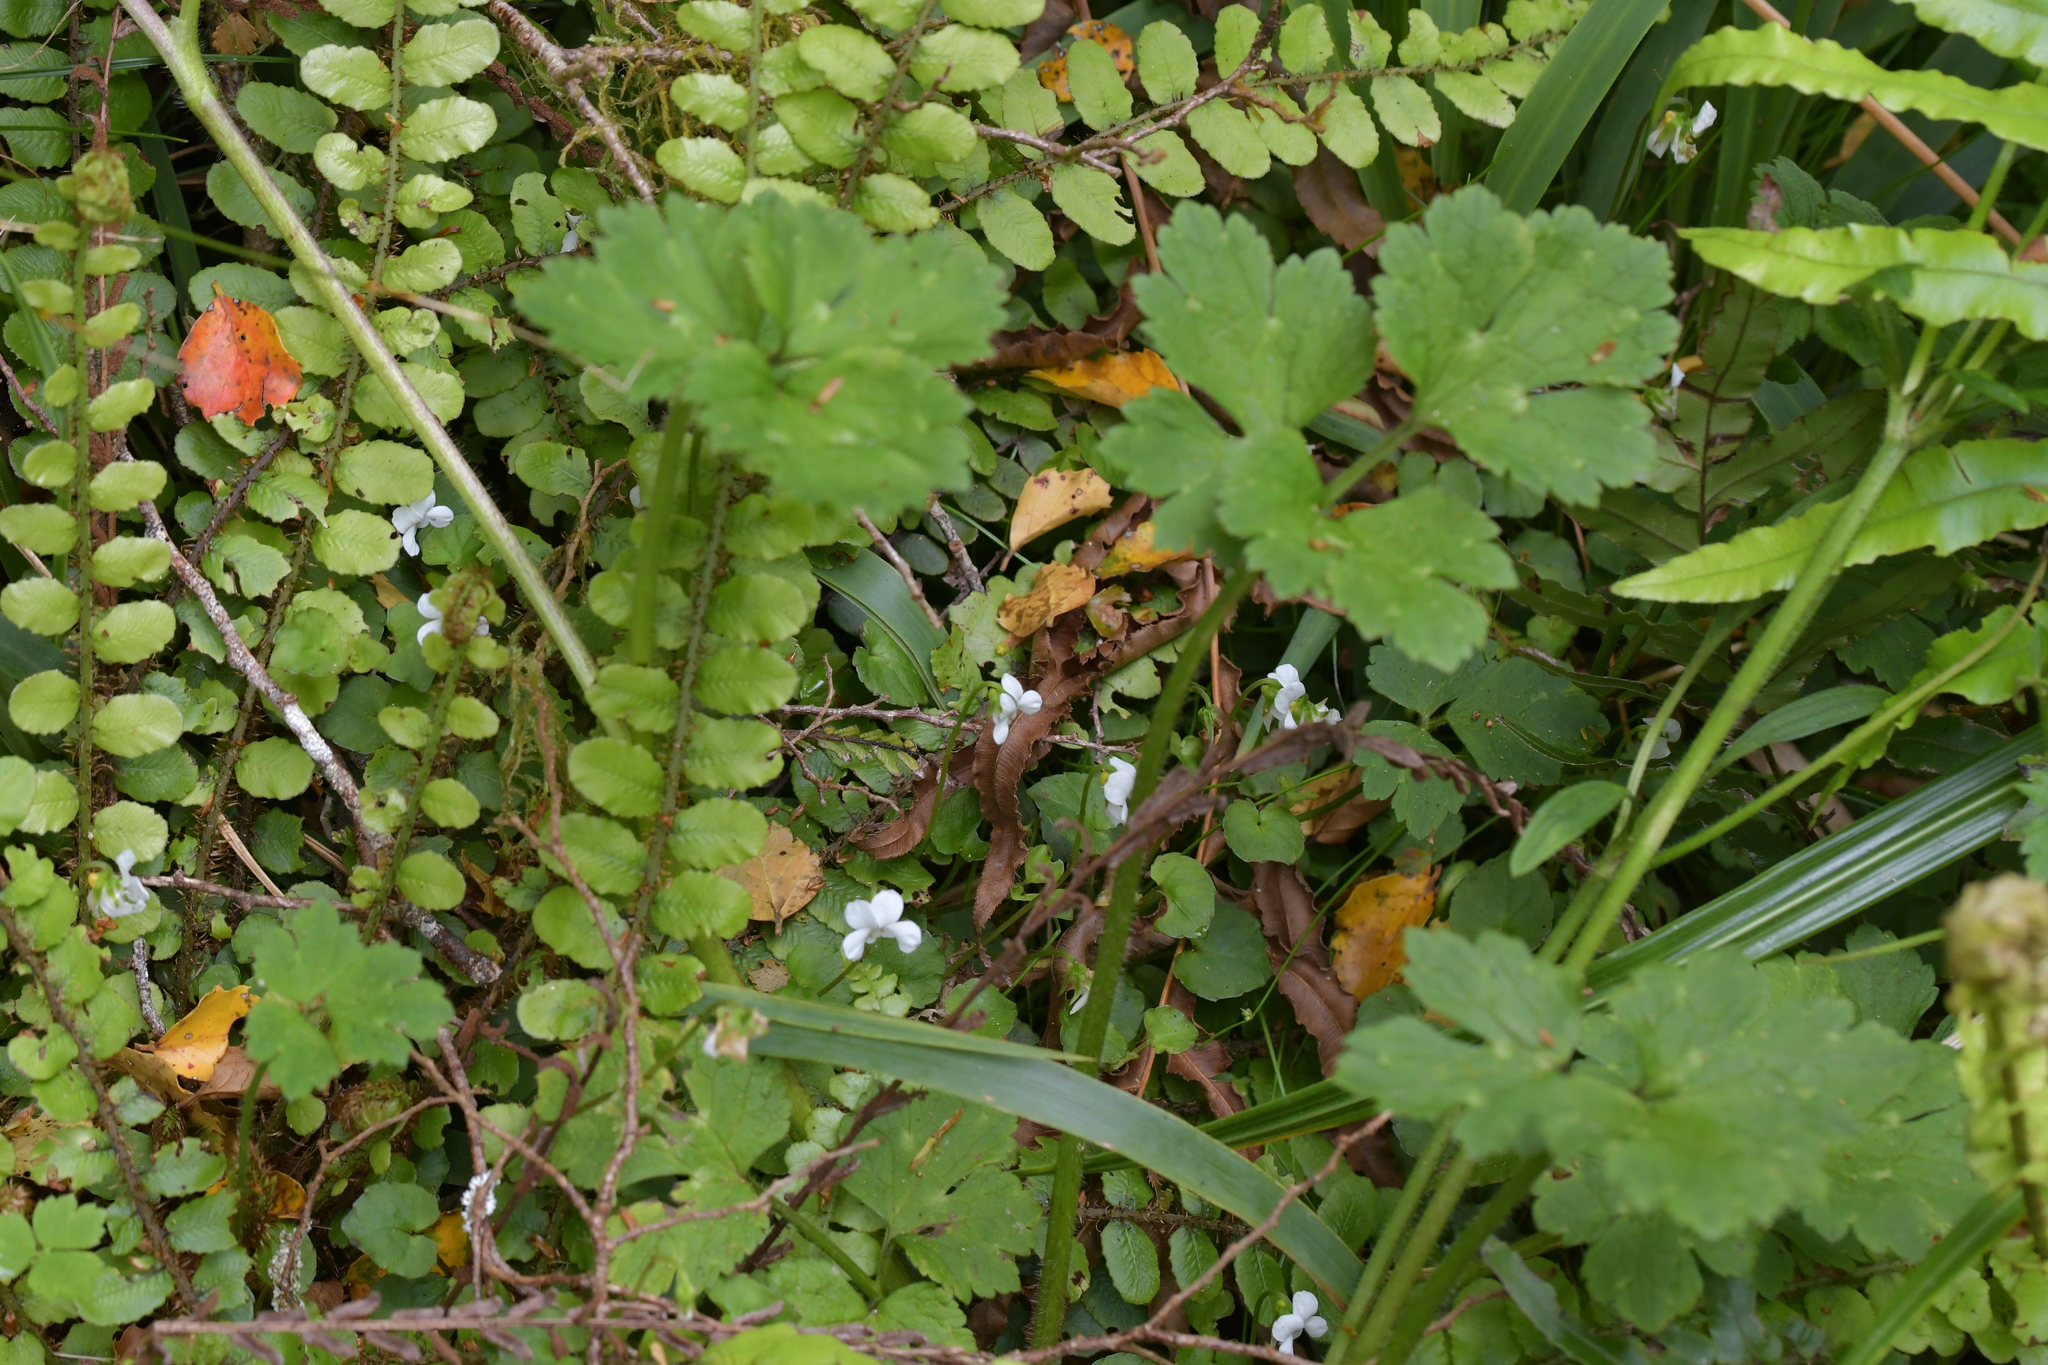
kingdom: Plantae
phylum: Tracheophyta
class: Magnoliopsida
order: Malpighiales
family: Violaceae
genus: Viola
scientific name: Viola filicaulis
